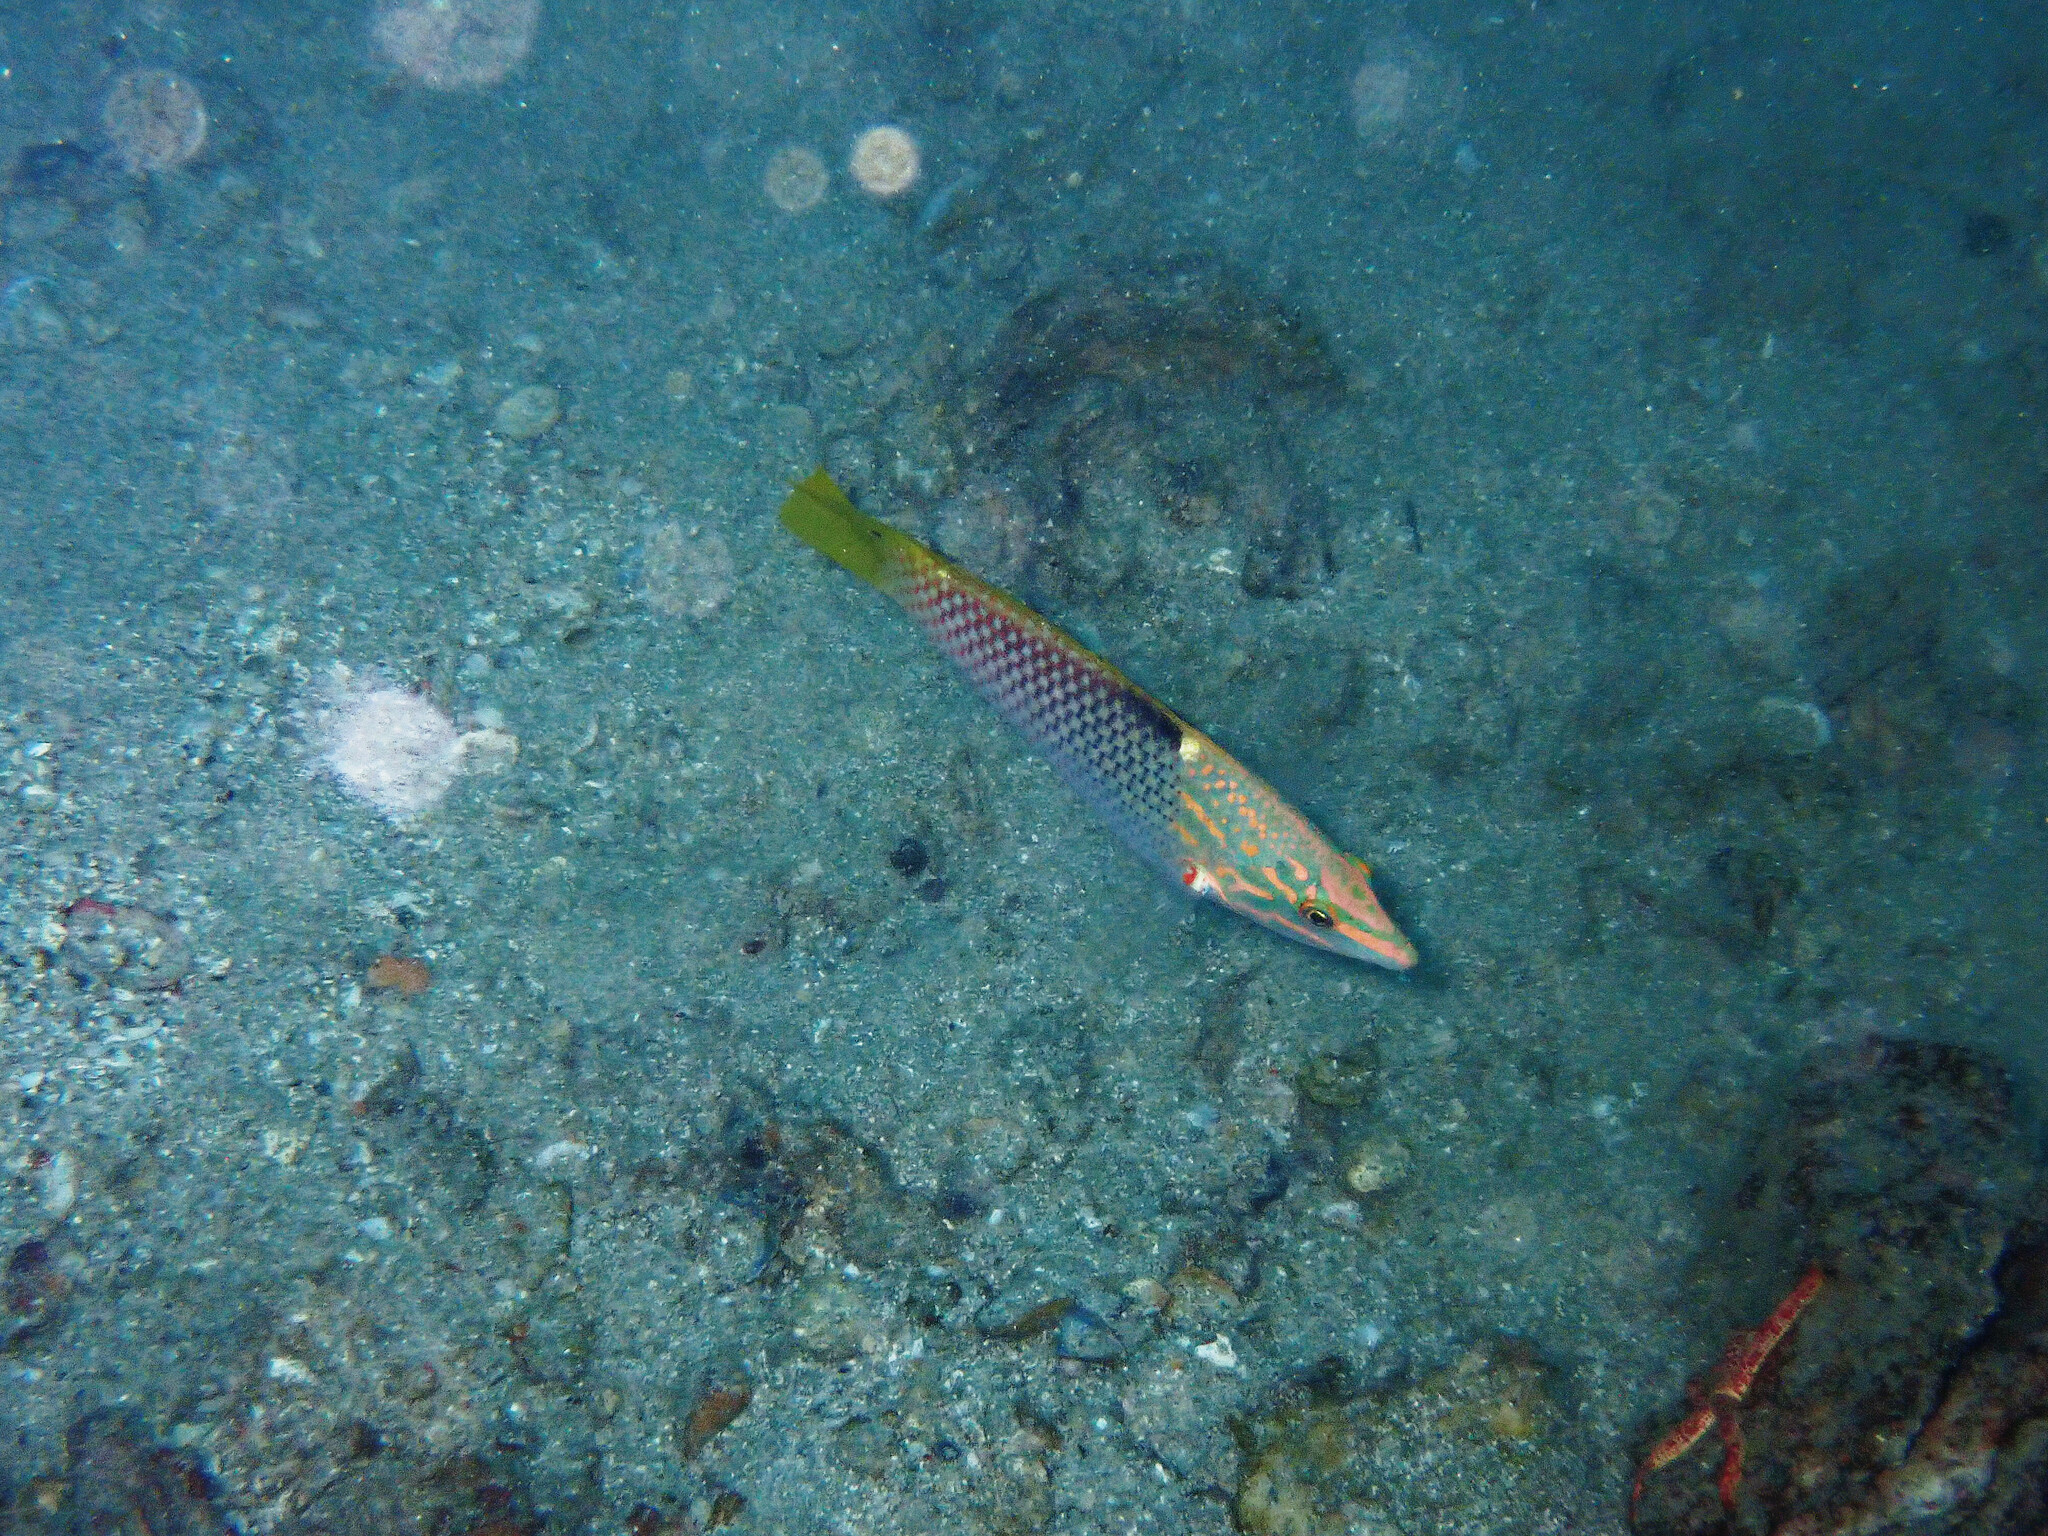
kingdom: Animalia
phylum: Chordata
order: Perciformes
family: Labridae
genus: Halichoeres
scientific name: Halichoeres hortulanus
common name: Checkerboard wrasse
